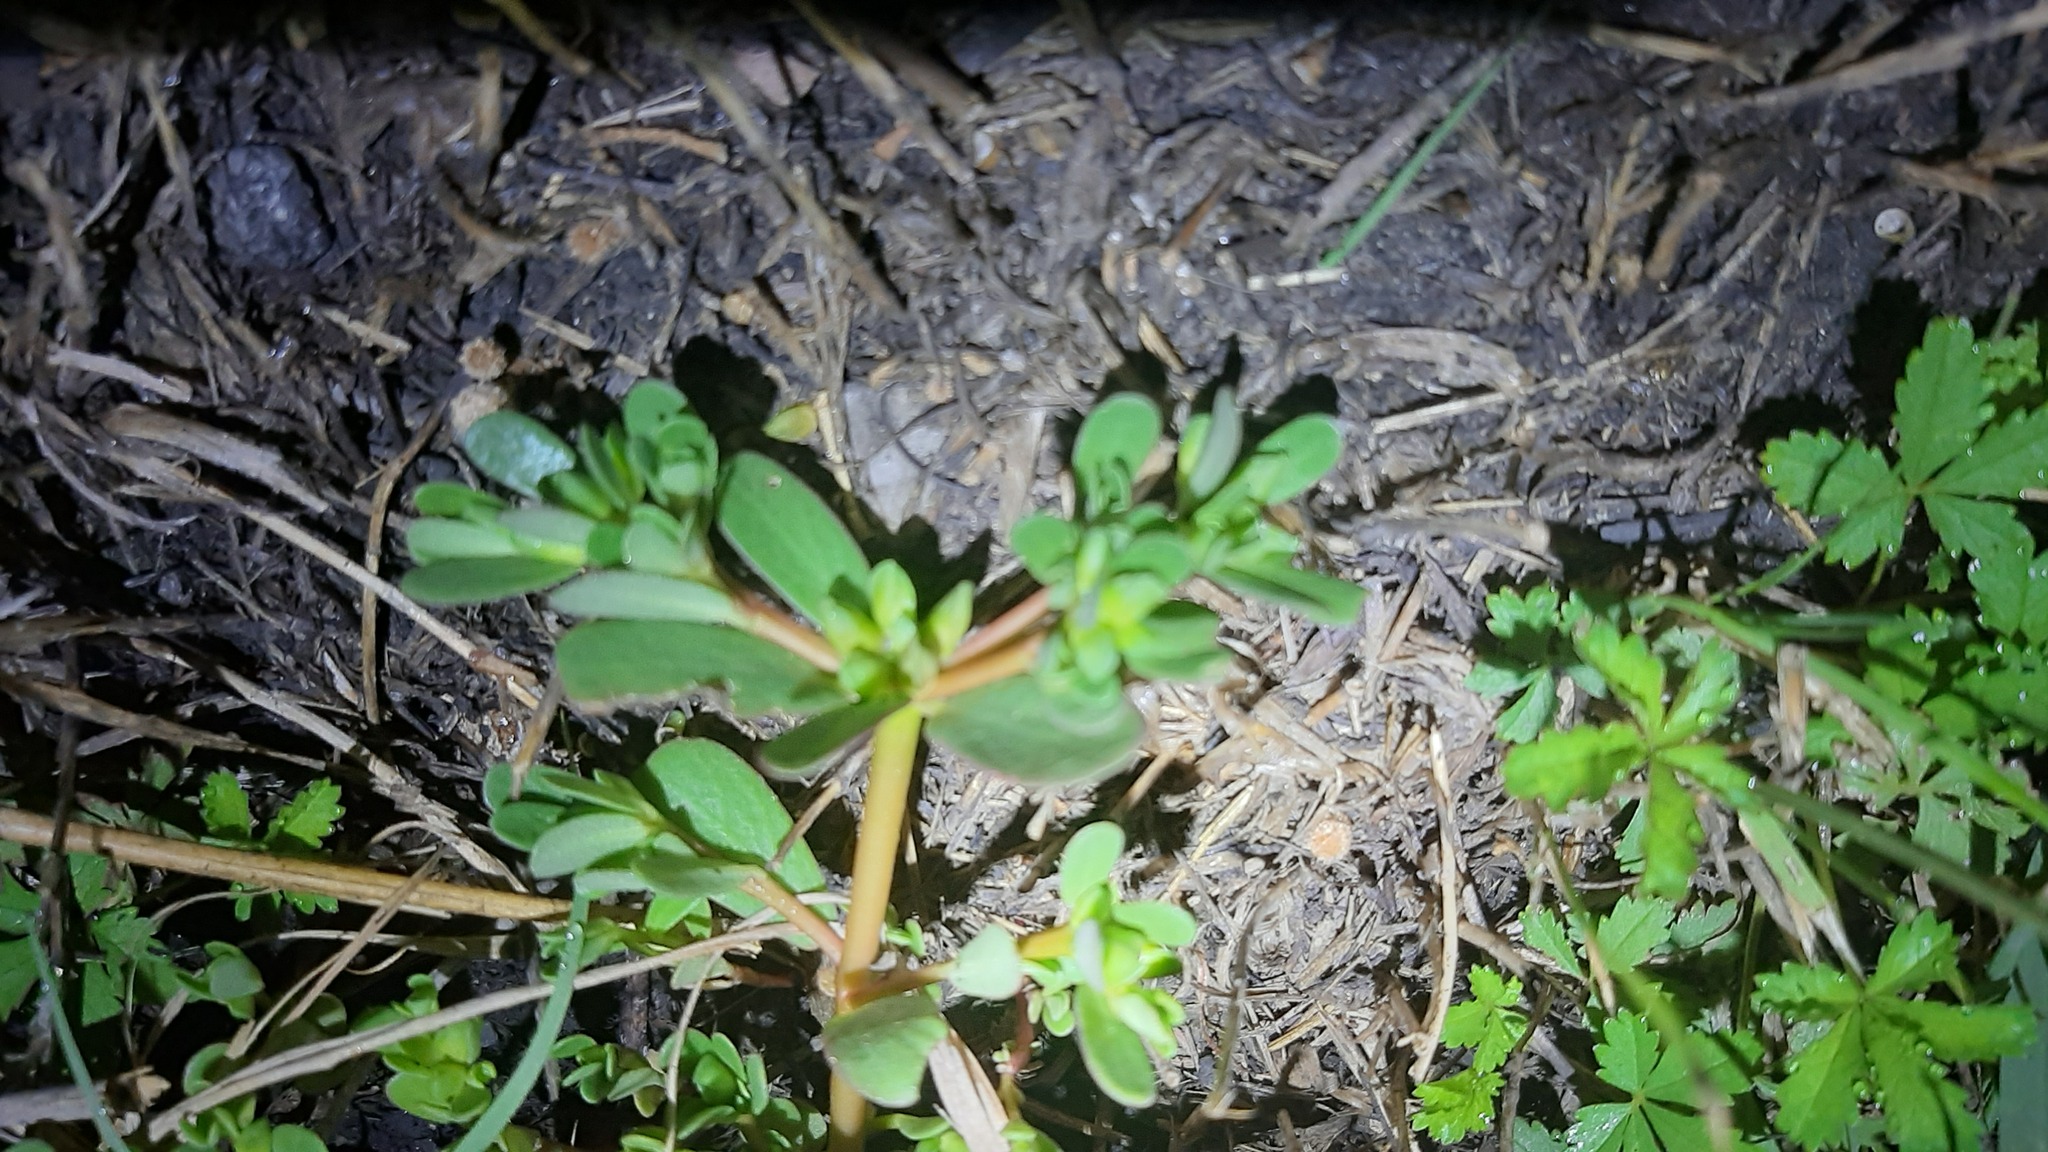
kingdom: Plantae
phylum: Tracheophyta
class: Magnoliopsida
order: Caryophyllales
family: Portulacaceae
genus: Portulaca
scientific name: Portulaca oleracea
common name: Common purslane
